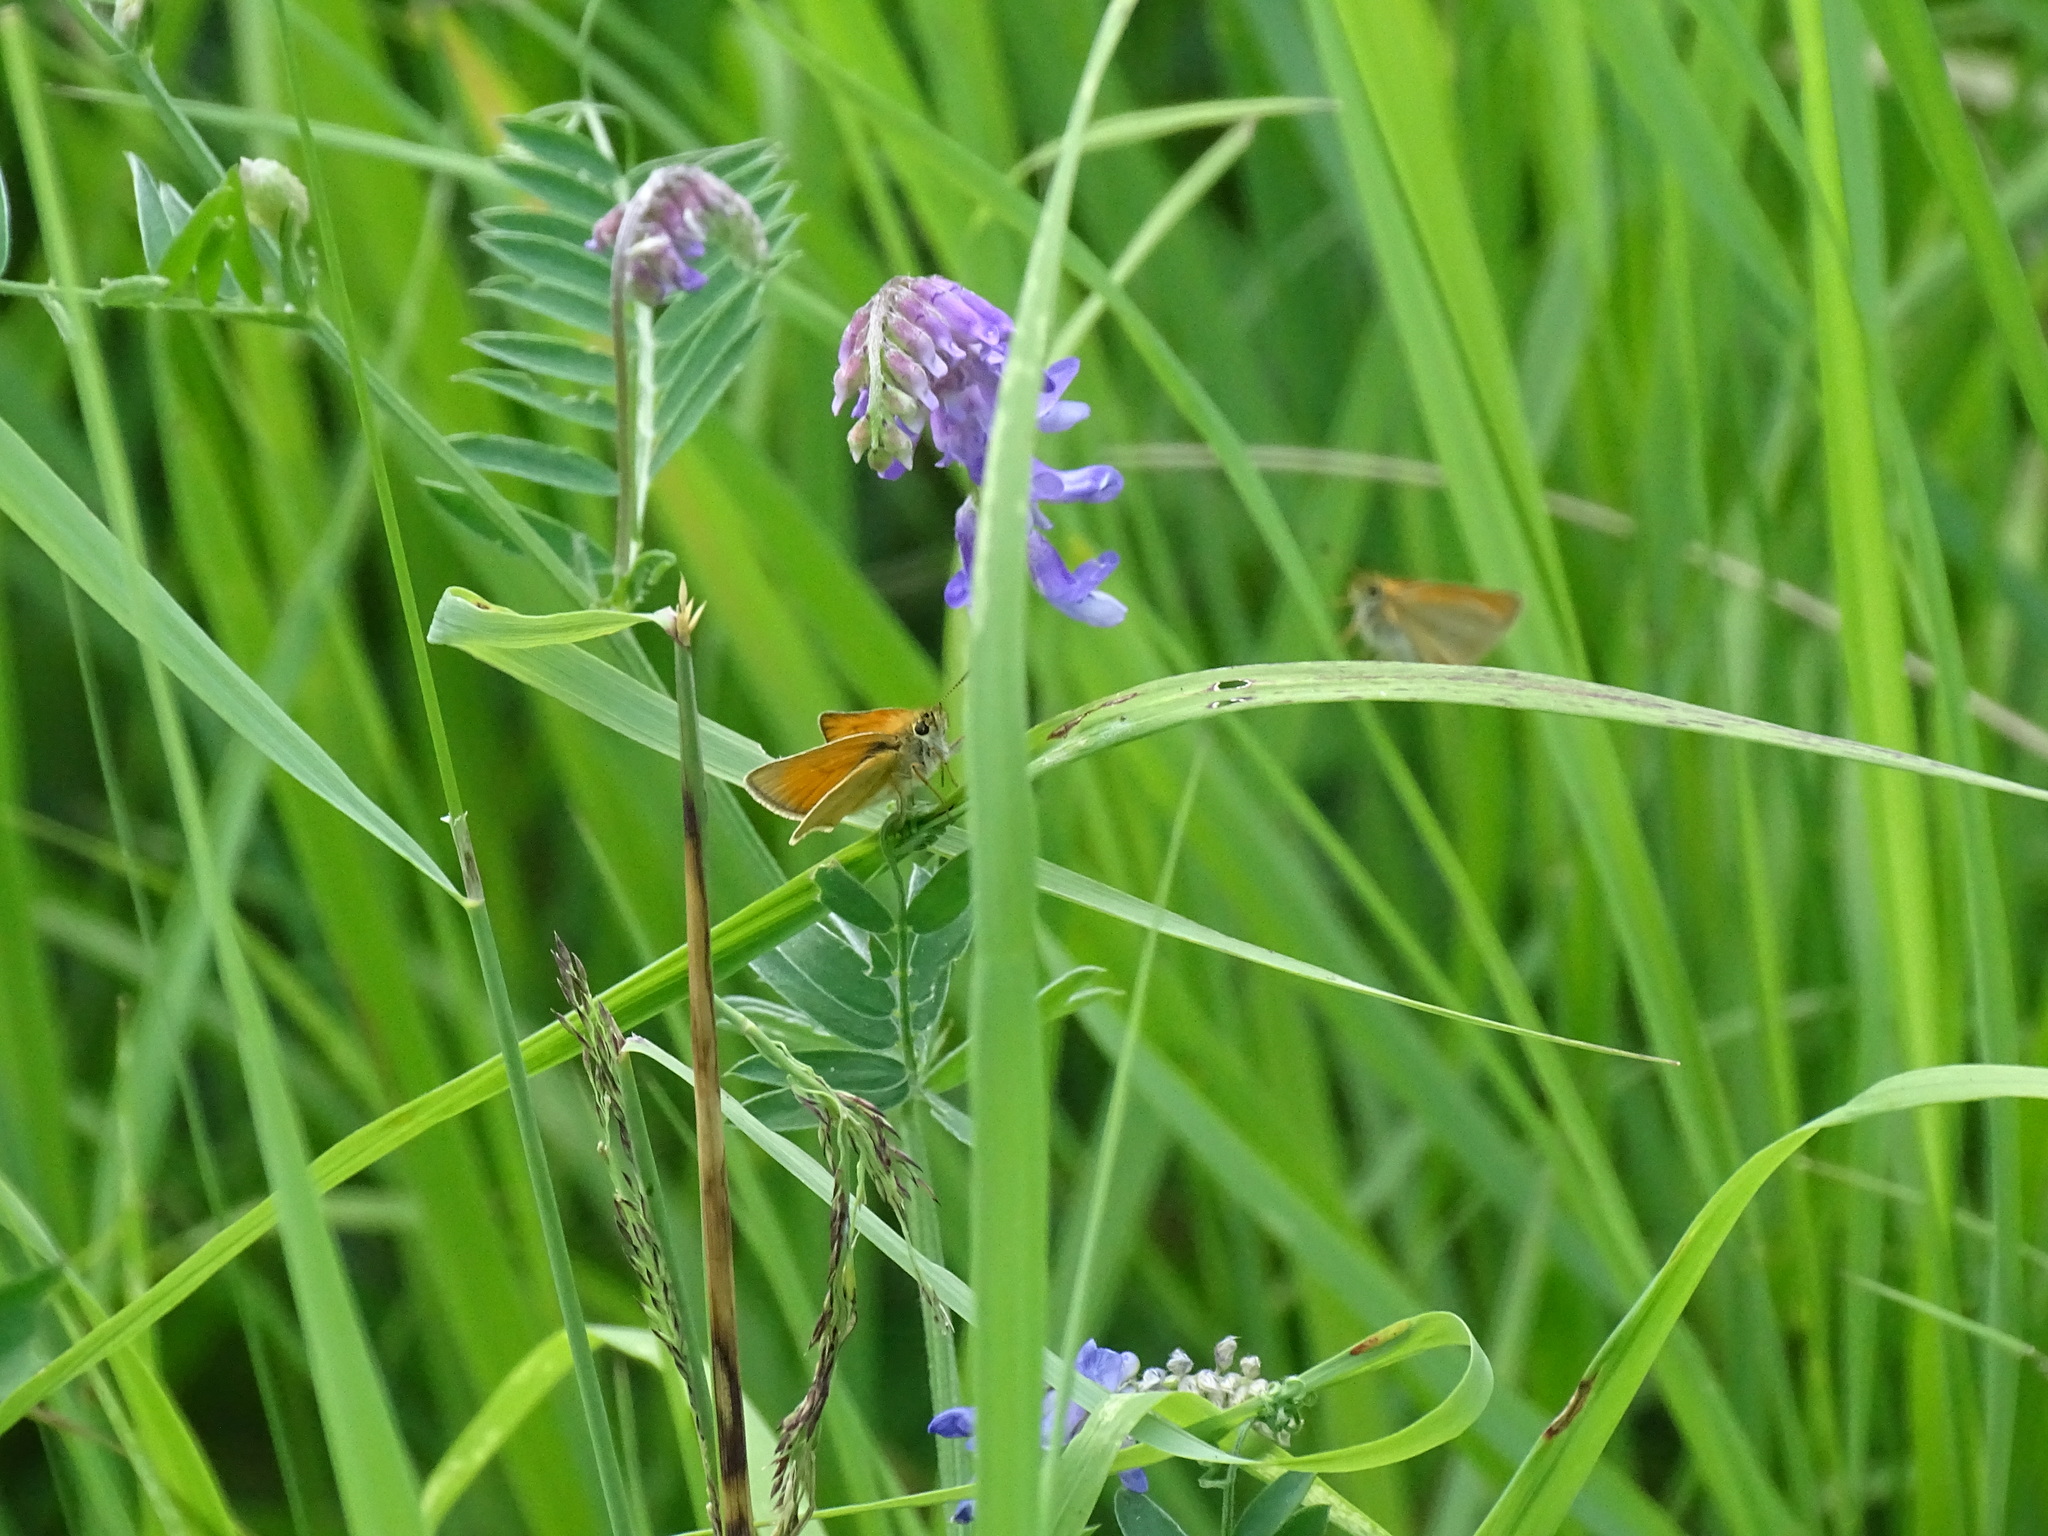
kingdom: Animalia
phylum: Arthropoda
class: Insecta
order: Lepidoptera
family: Hesperiidae
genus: Thymelicus
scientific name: Thymelicus lineola
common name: Essex skipper
